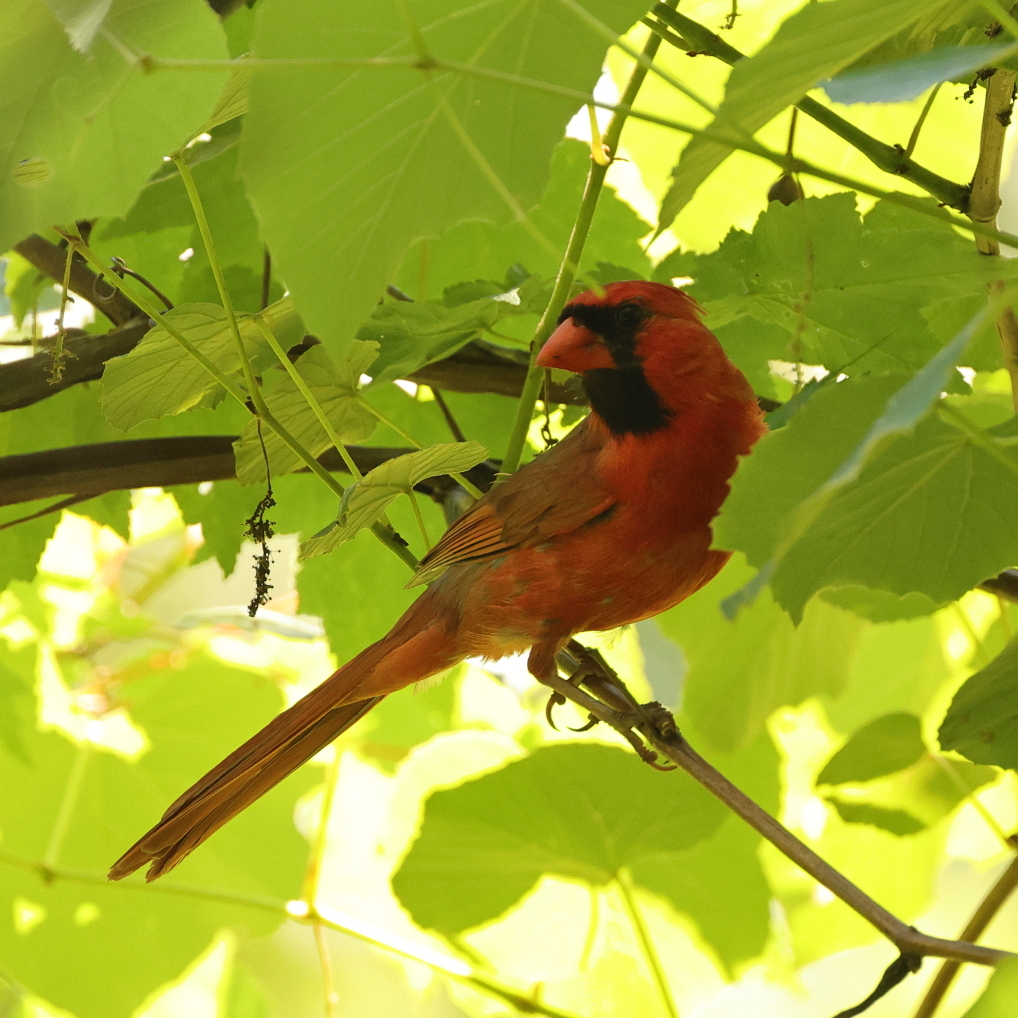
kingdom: Animalia
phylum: Chordata
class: Aves
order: Passeriformes
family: Cardinalidae
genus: Cardinalis
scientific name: Cardinalis cardinalis
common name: Northern cardinal
